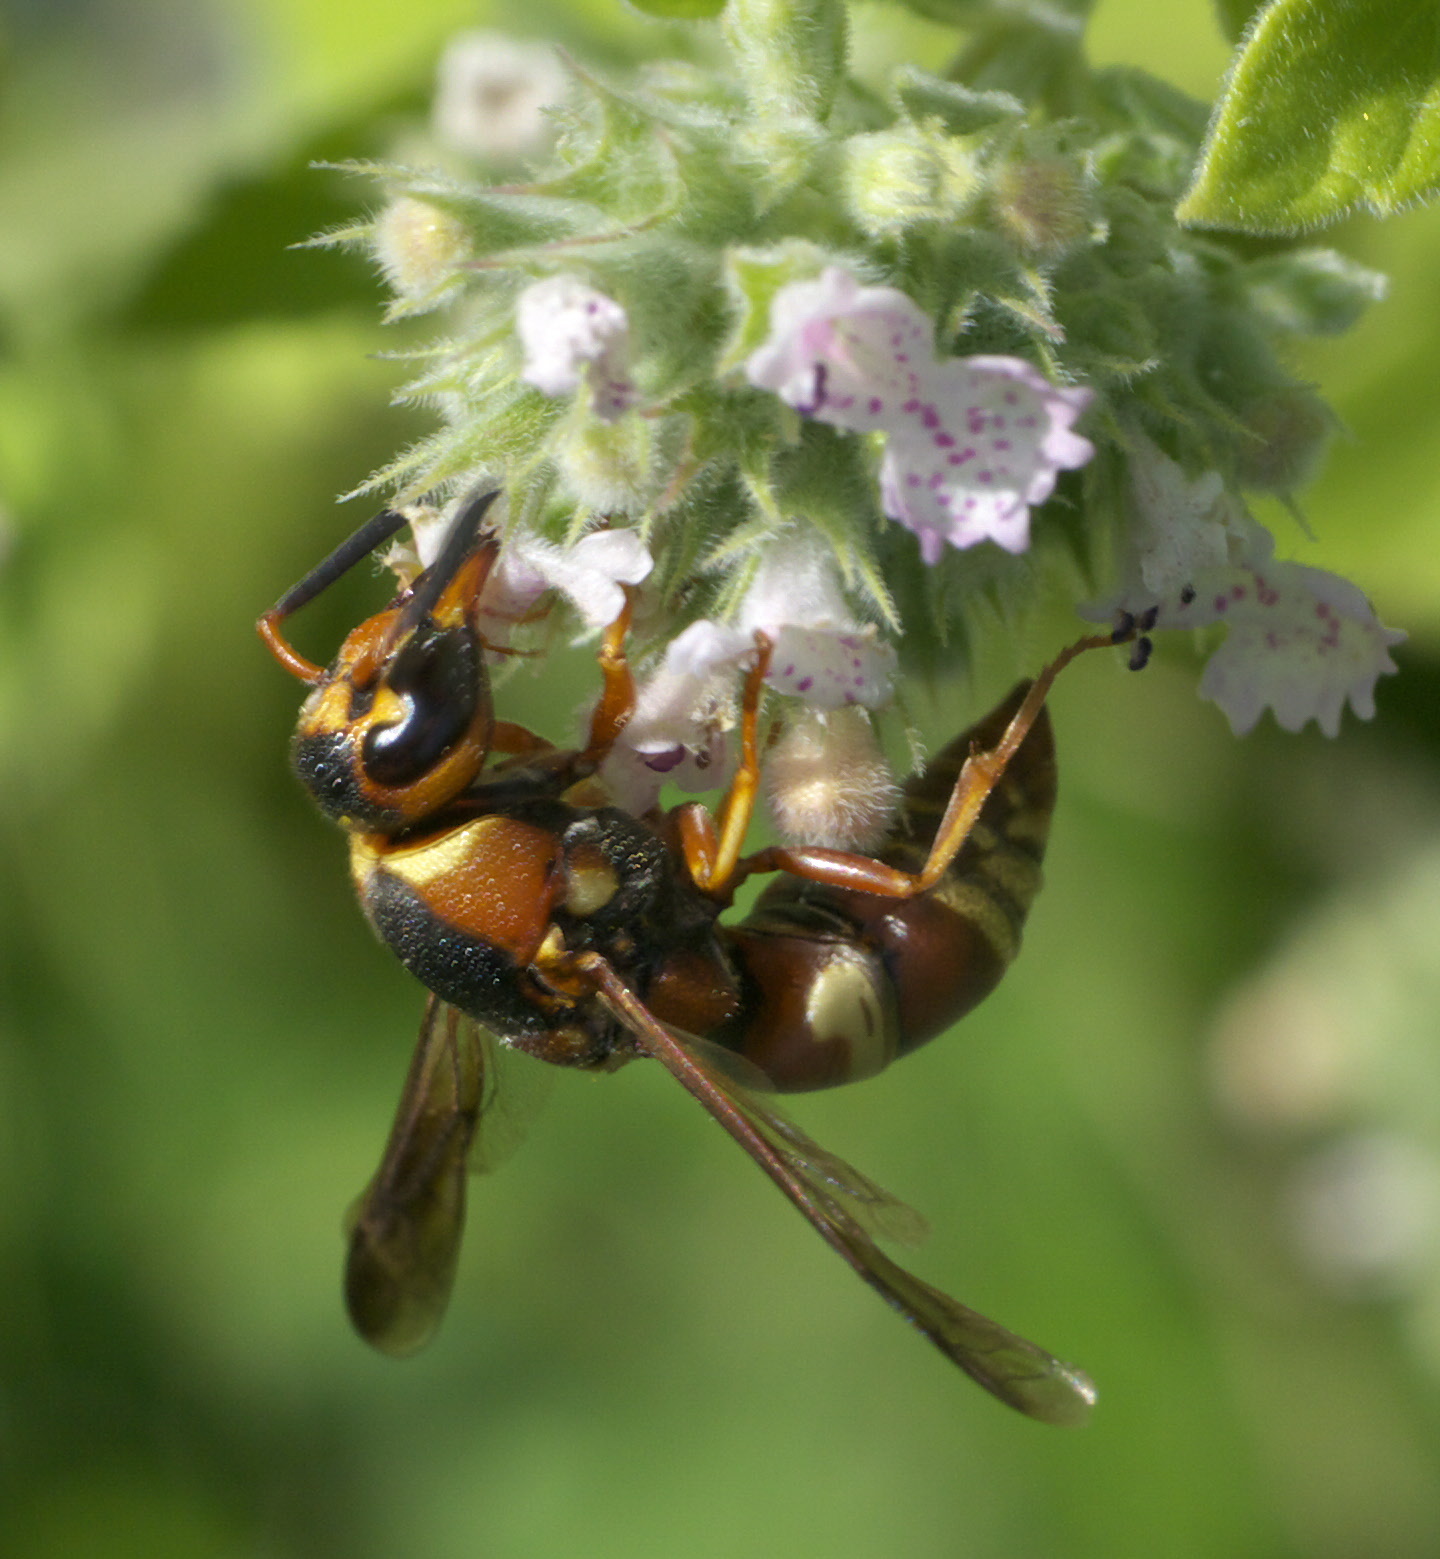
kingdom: Animalia
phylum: Arthropoda
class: Insecta
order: Hymenoptera
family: Eumenidae
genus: Euodynerus
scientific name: Euodynerus hidalgo
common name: Wasp
